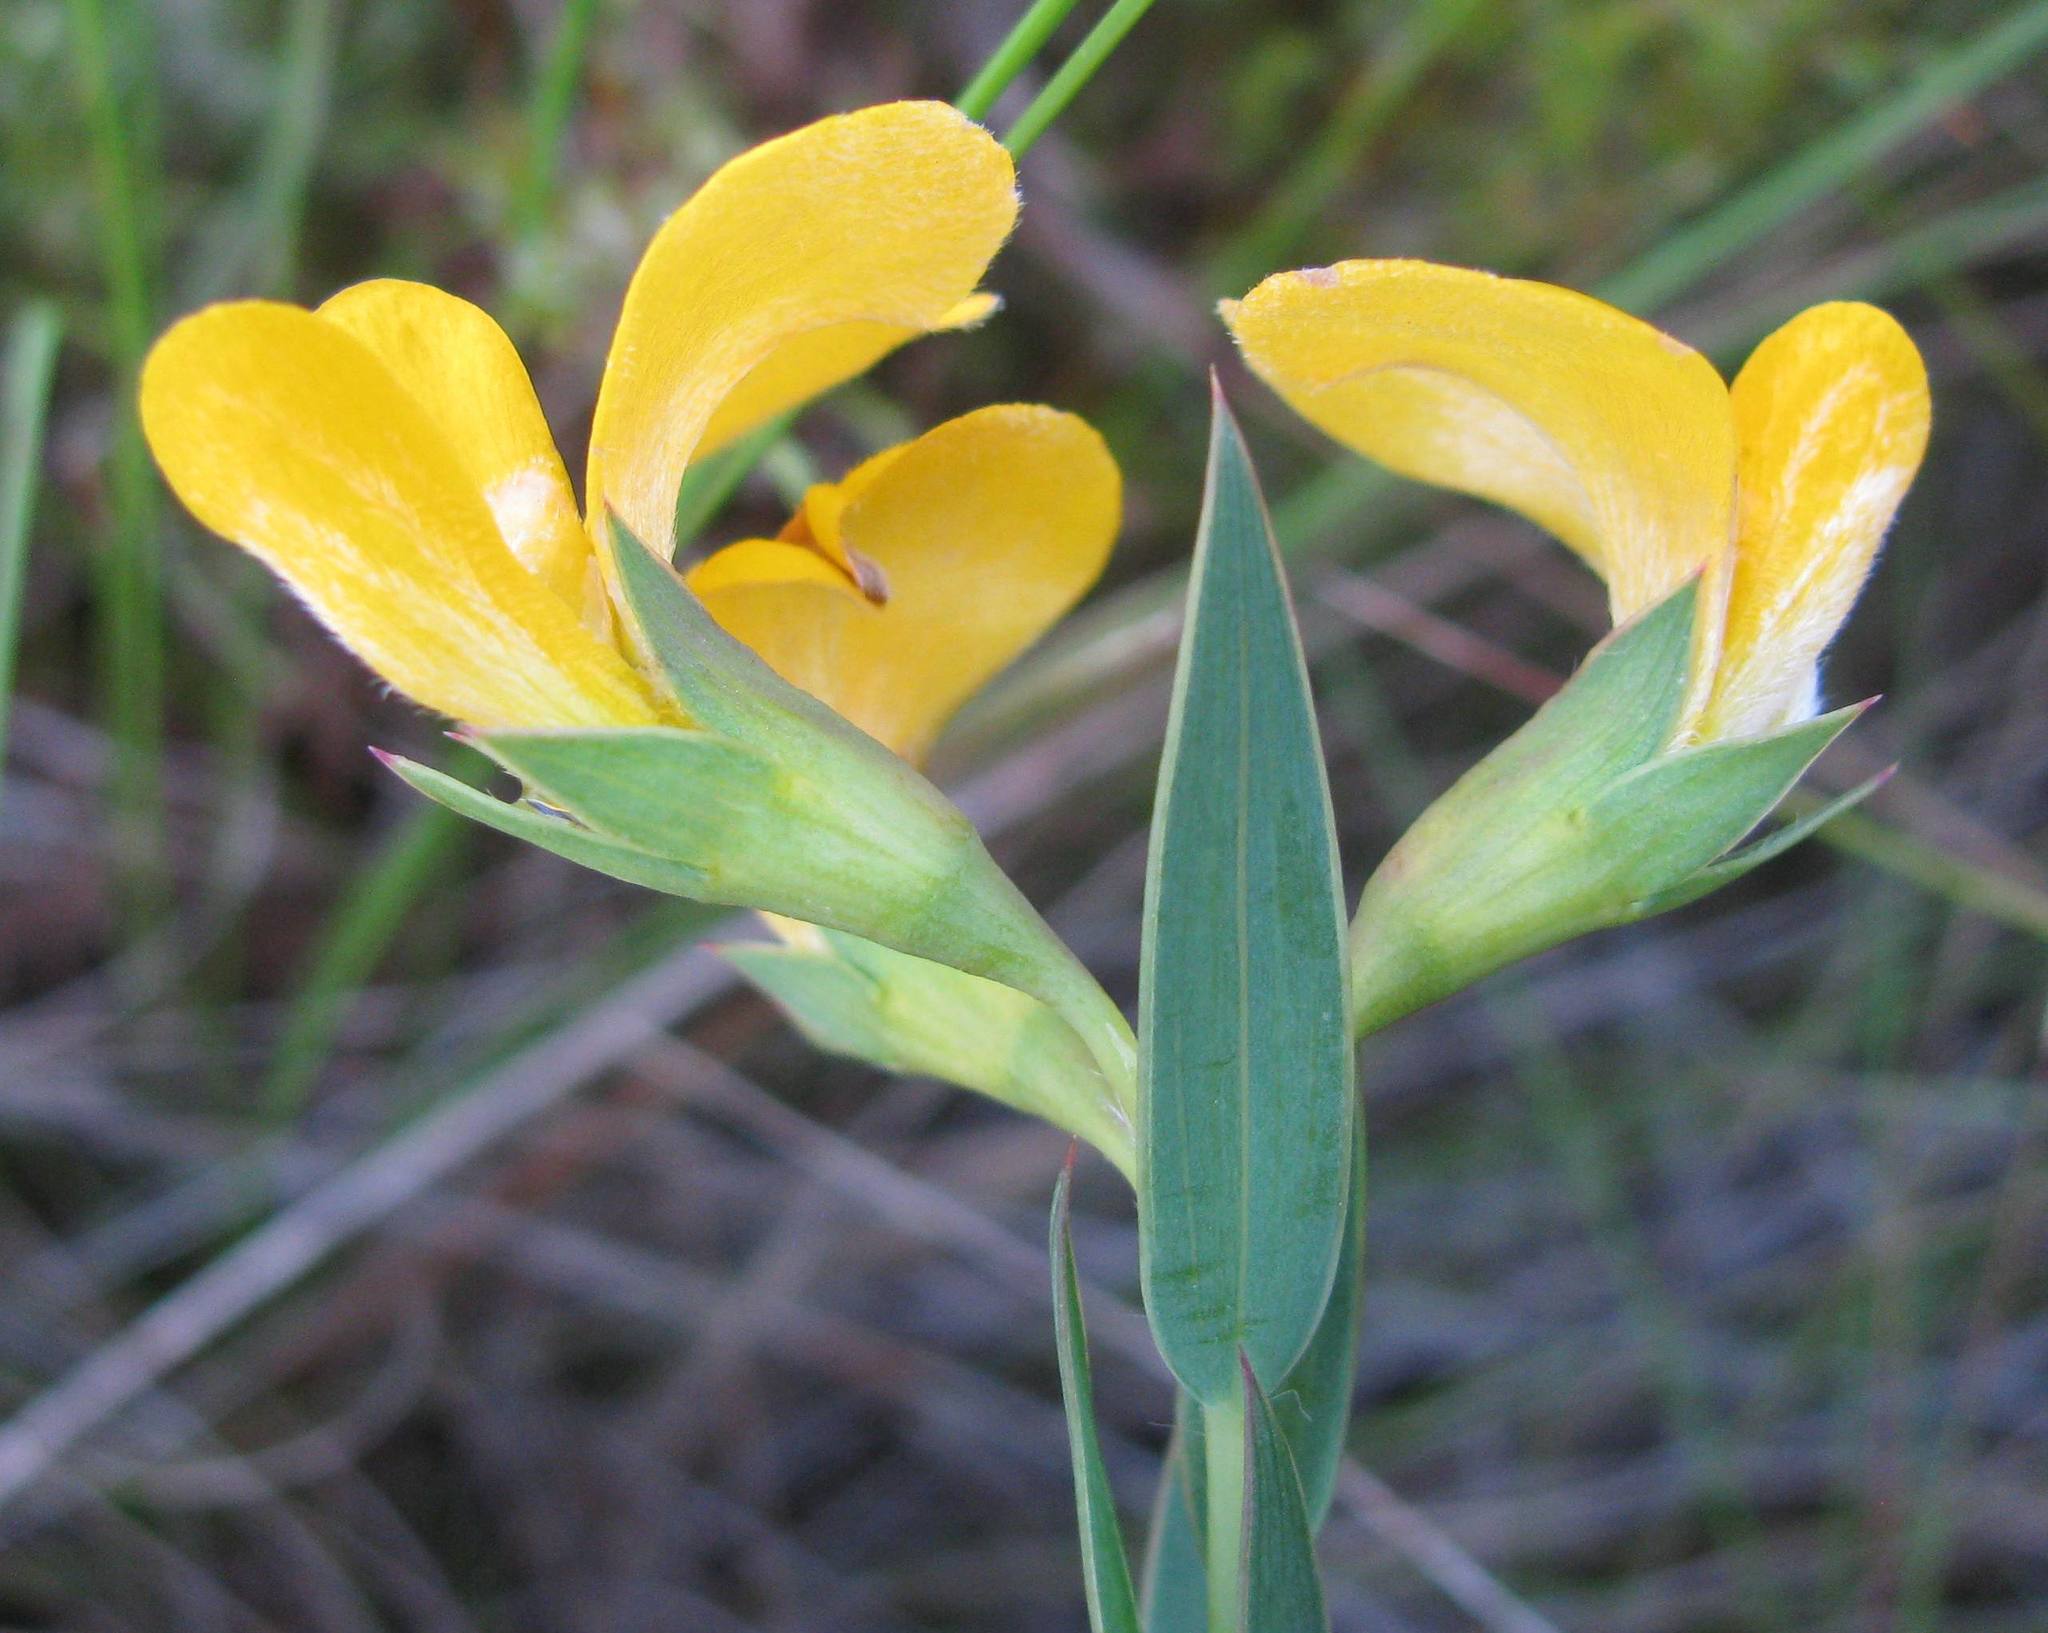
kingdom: Plantae
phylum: Tracheophyta
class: Magnoliopsida
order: Fabales
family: Fabaceae
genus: Aspalathus
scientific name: Aspalathus angustifolia
